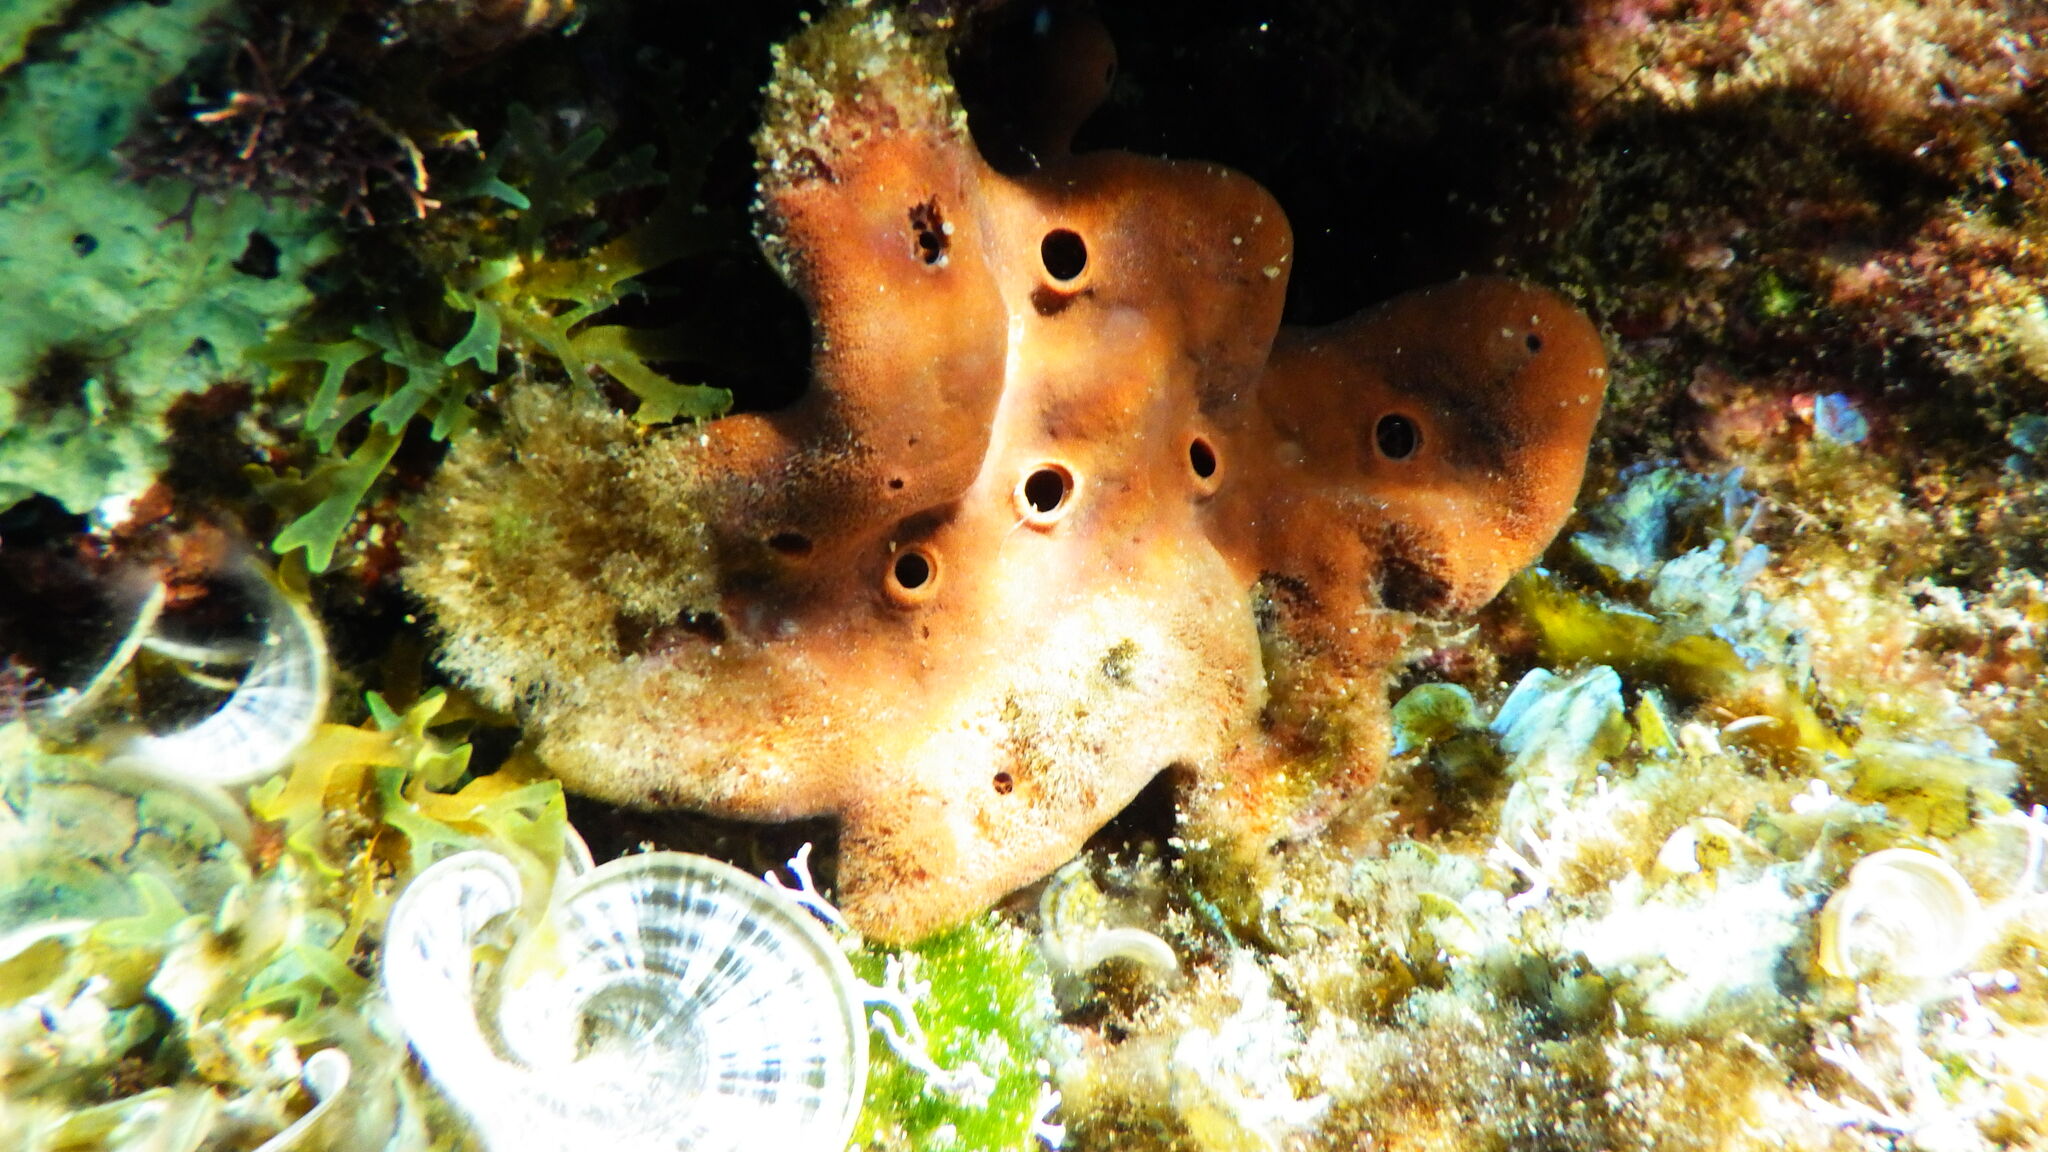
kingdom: Animalia
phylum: Porifera
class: Demospongiae
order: Haplosclerida
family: Petrosiidae
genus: Petrosia
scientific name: Petrosia ficiformis
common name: Stony sponge
